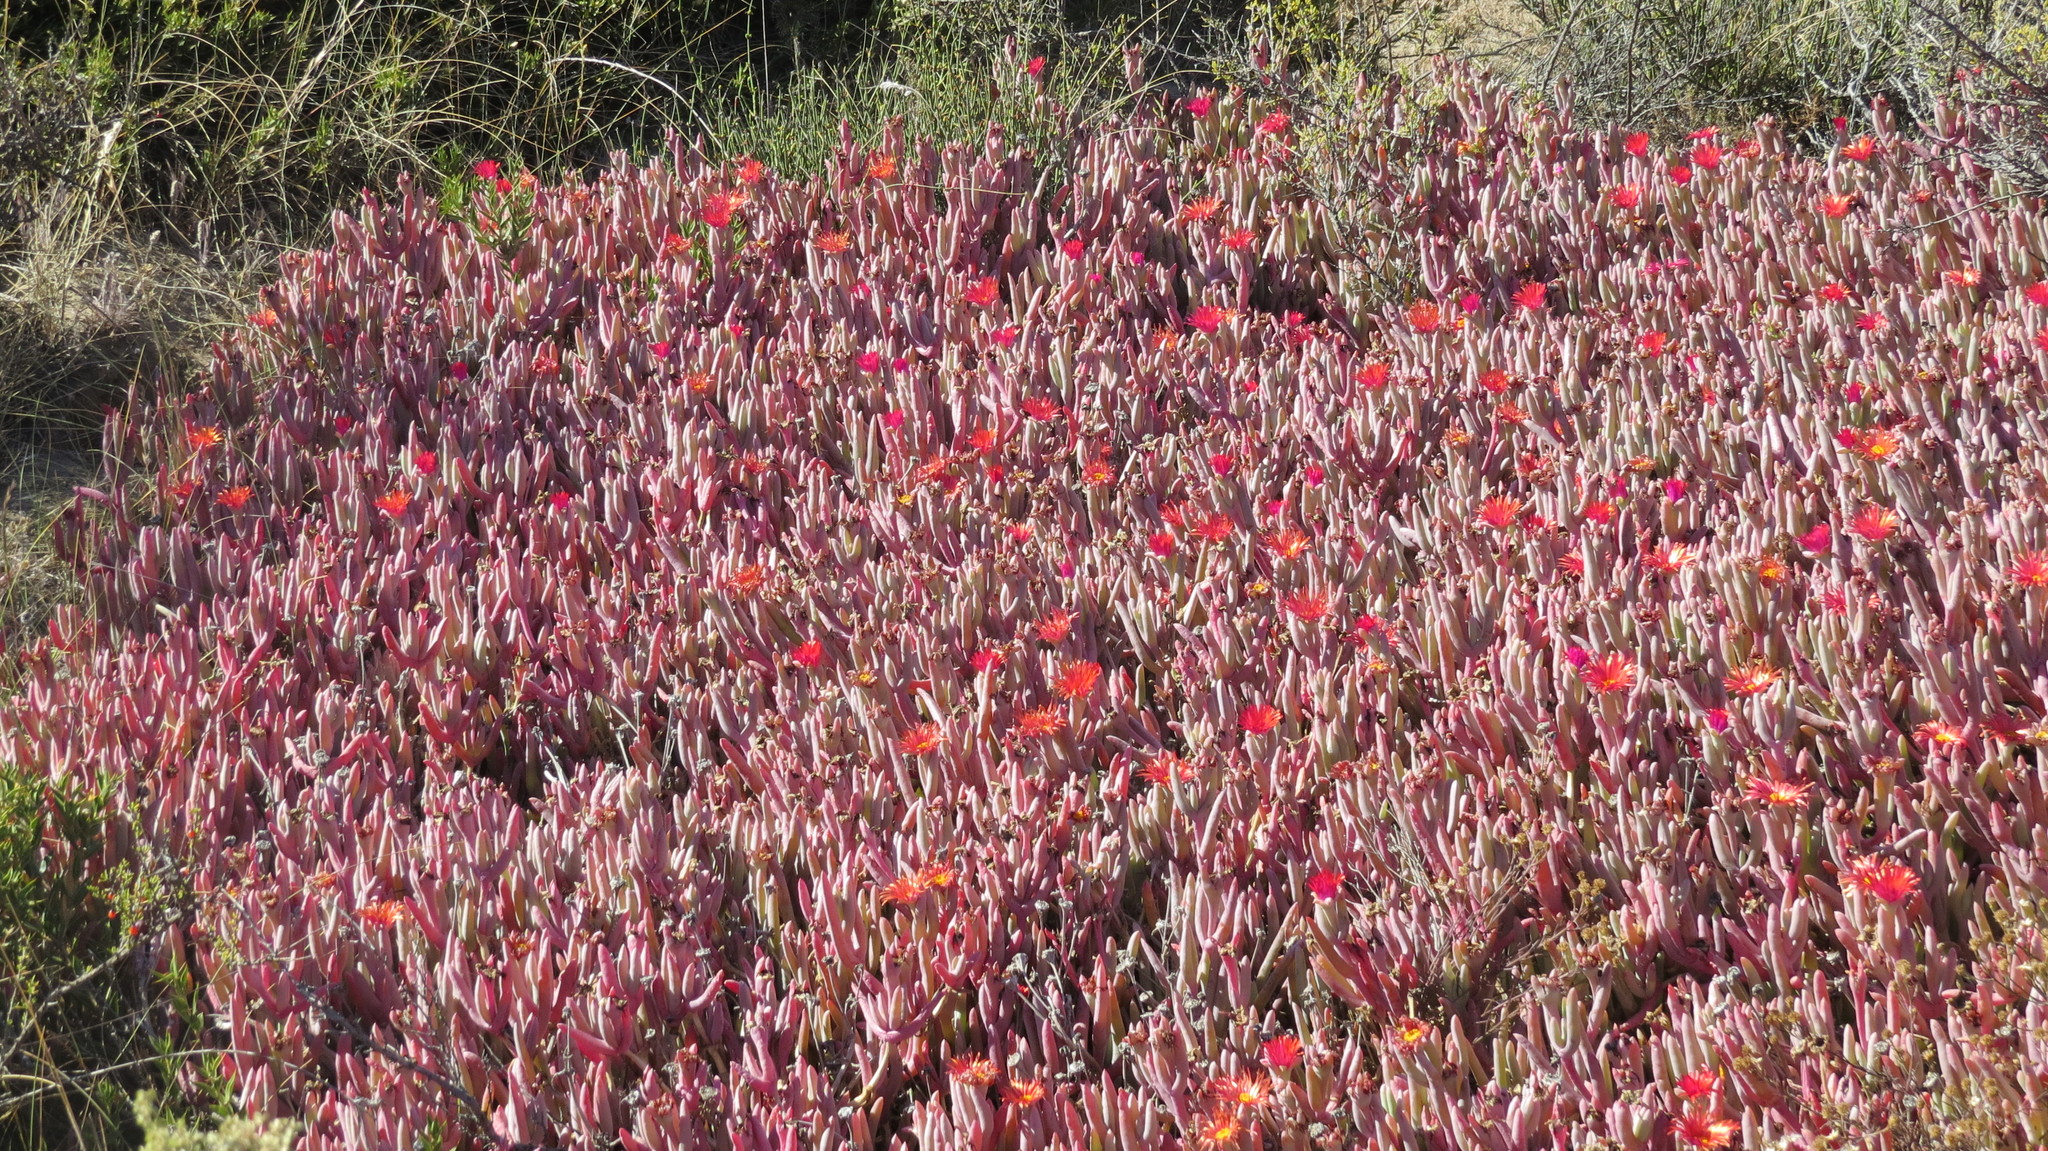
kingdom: Plantae
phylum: Tracheophyta
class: Magnoliopsida
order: Caryophyllales
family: Aizoaceae
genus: Malephora
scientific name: Malephora purpureocrocea
